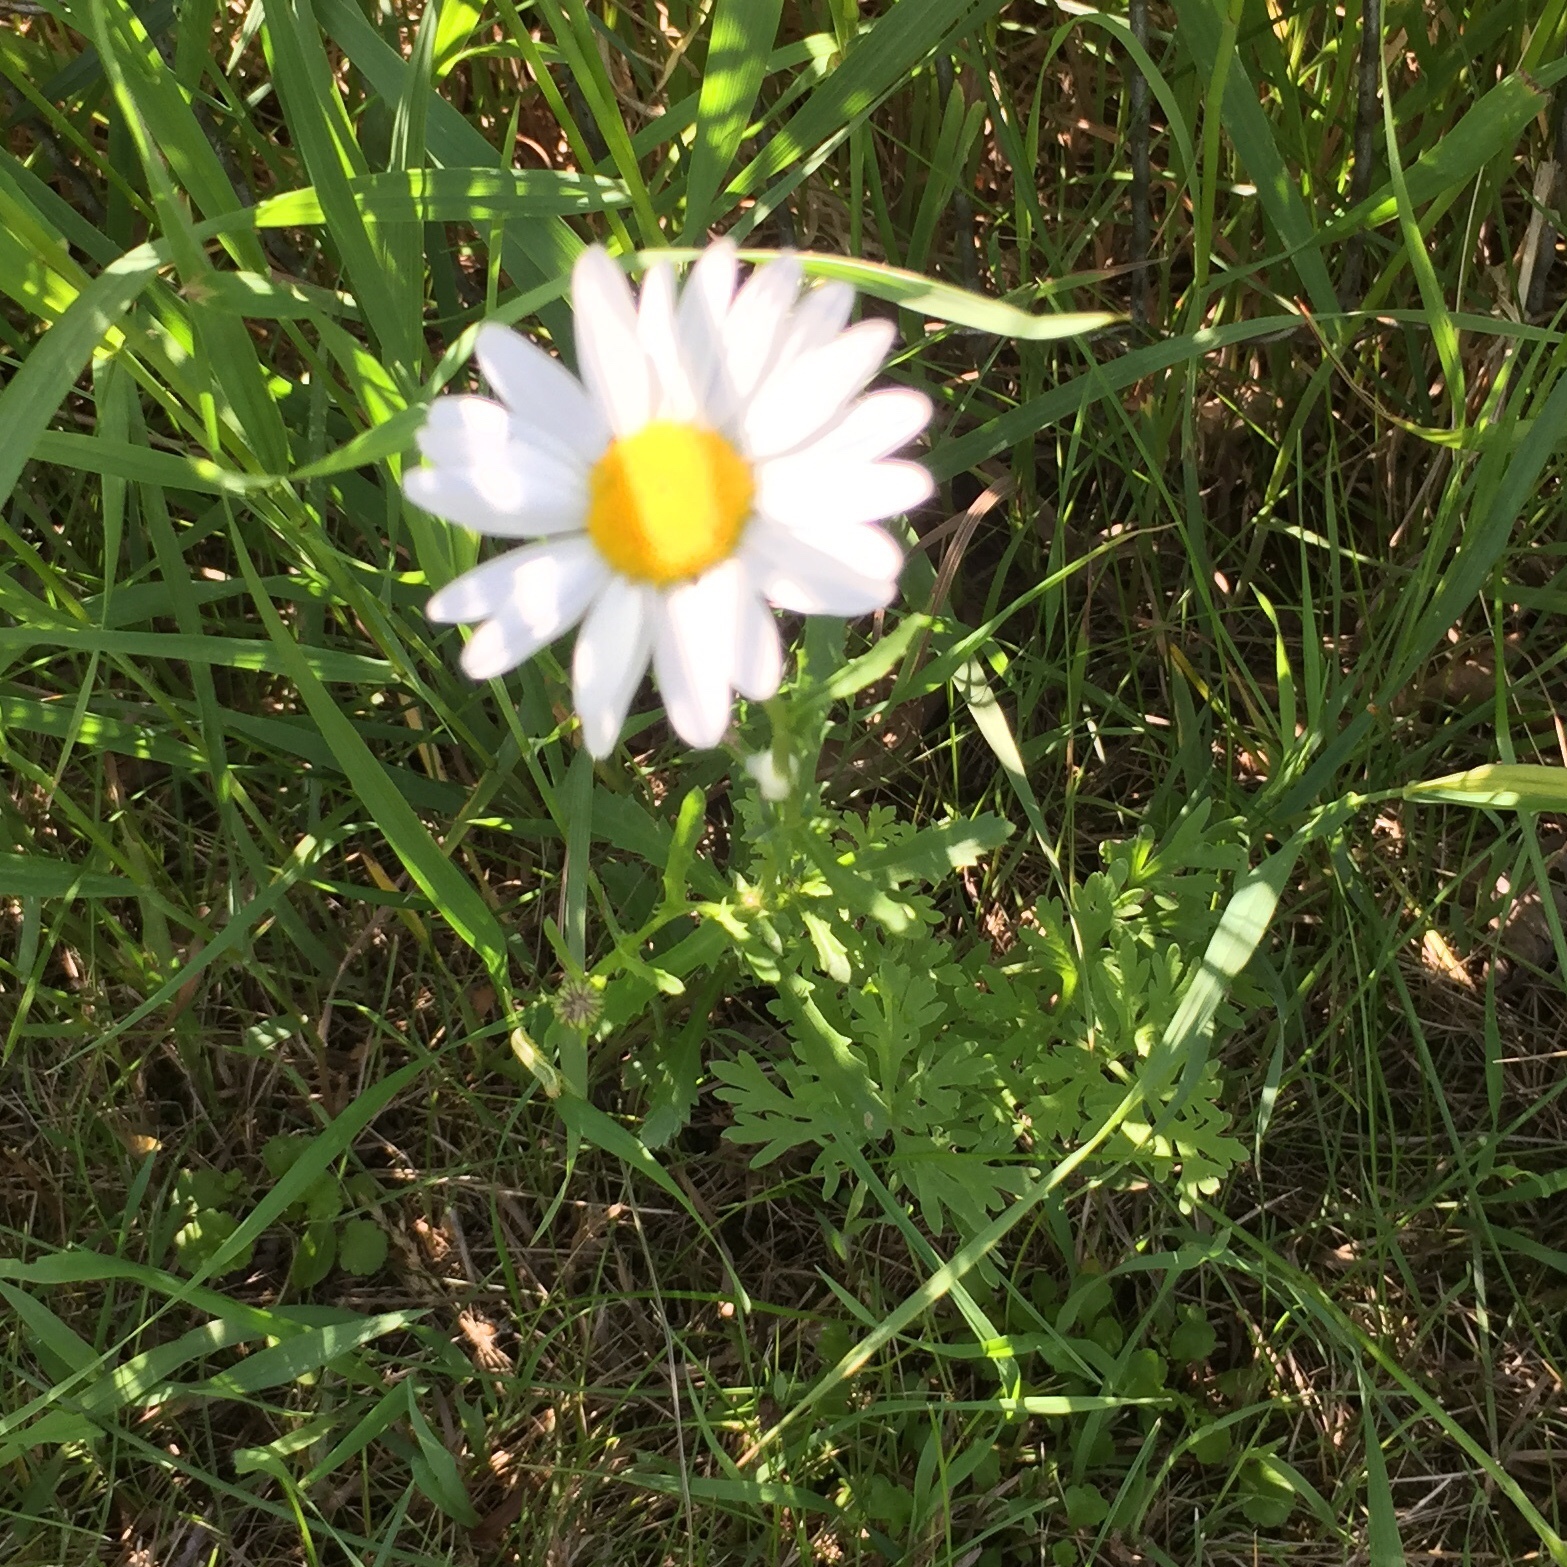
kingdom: Plantae
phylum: Tracheophyta
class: Magnoliopsida
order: Asterales
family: Asteraceae
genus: Leucanthemum
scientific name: Leucanthemum vulgare
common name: Oxeye daisy
